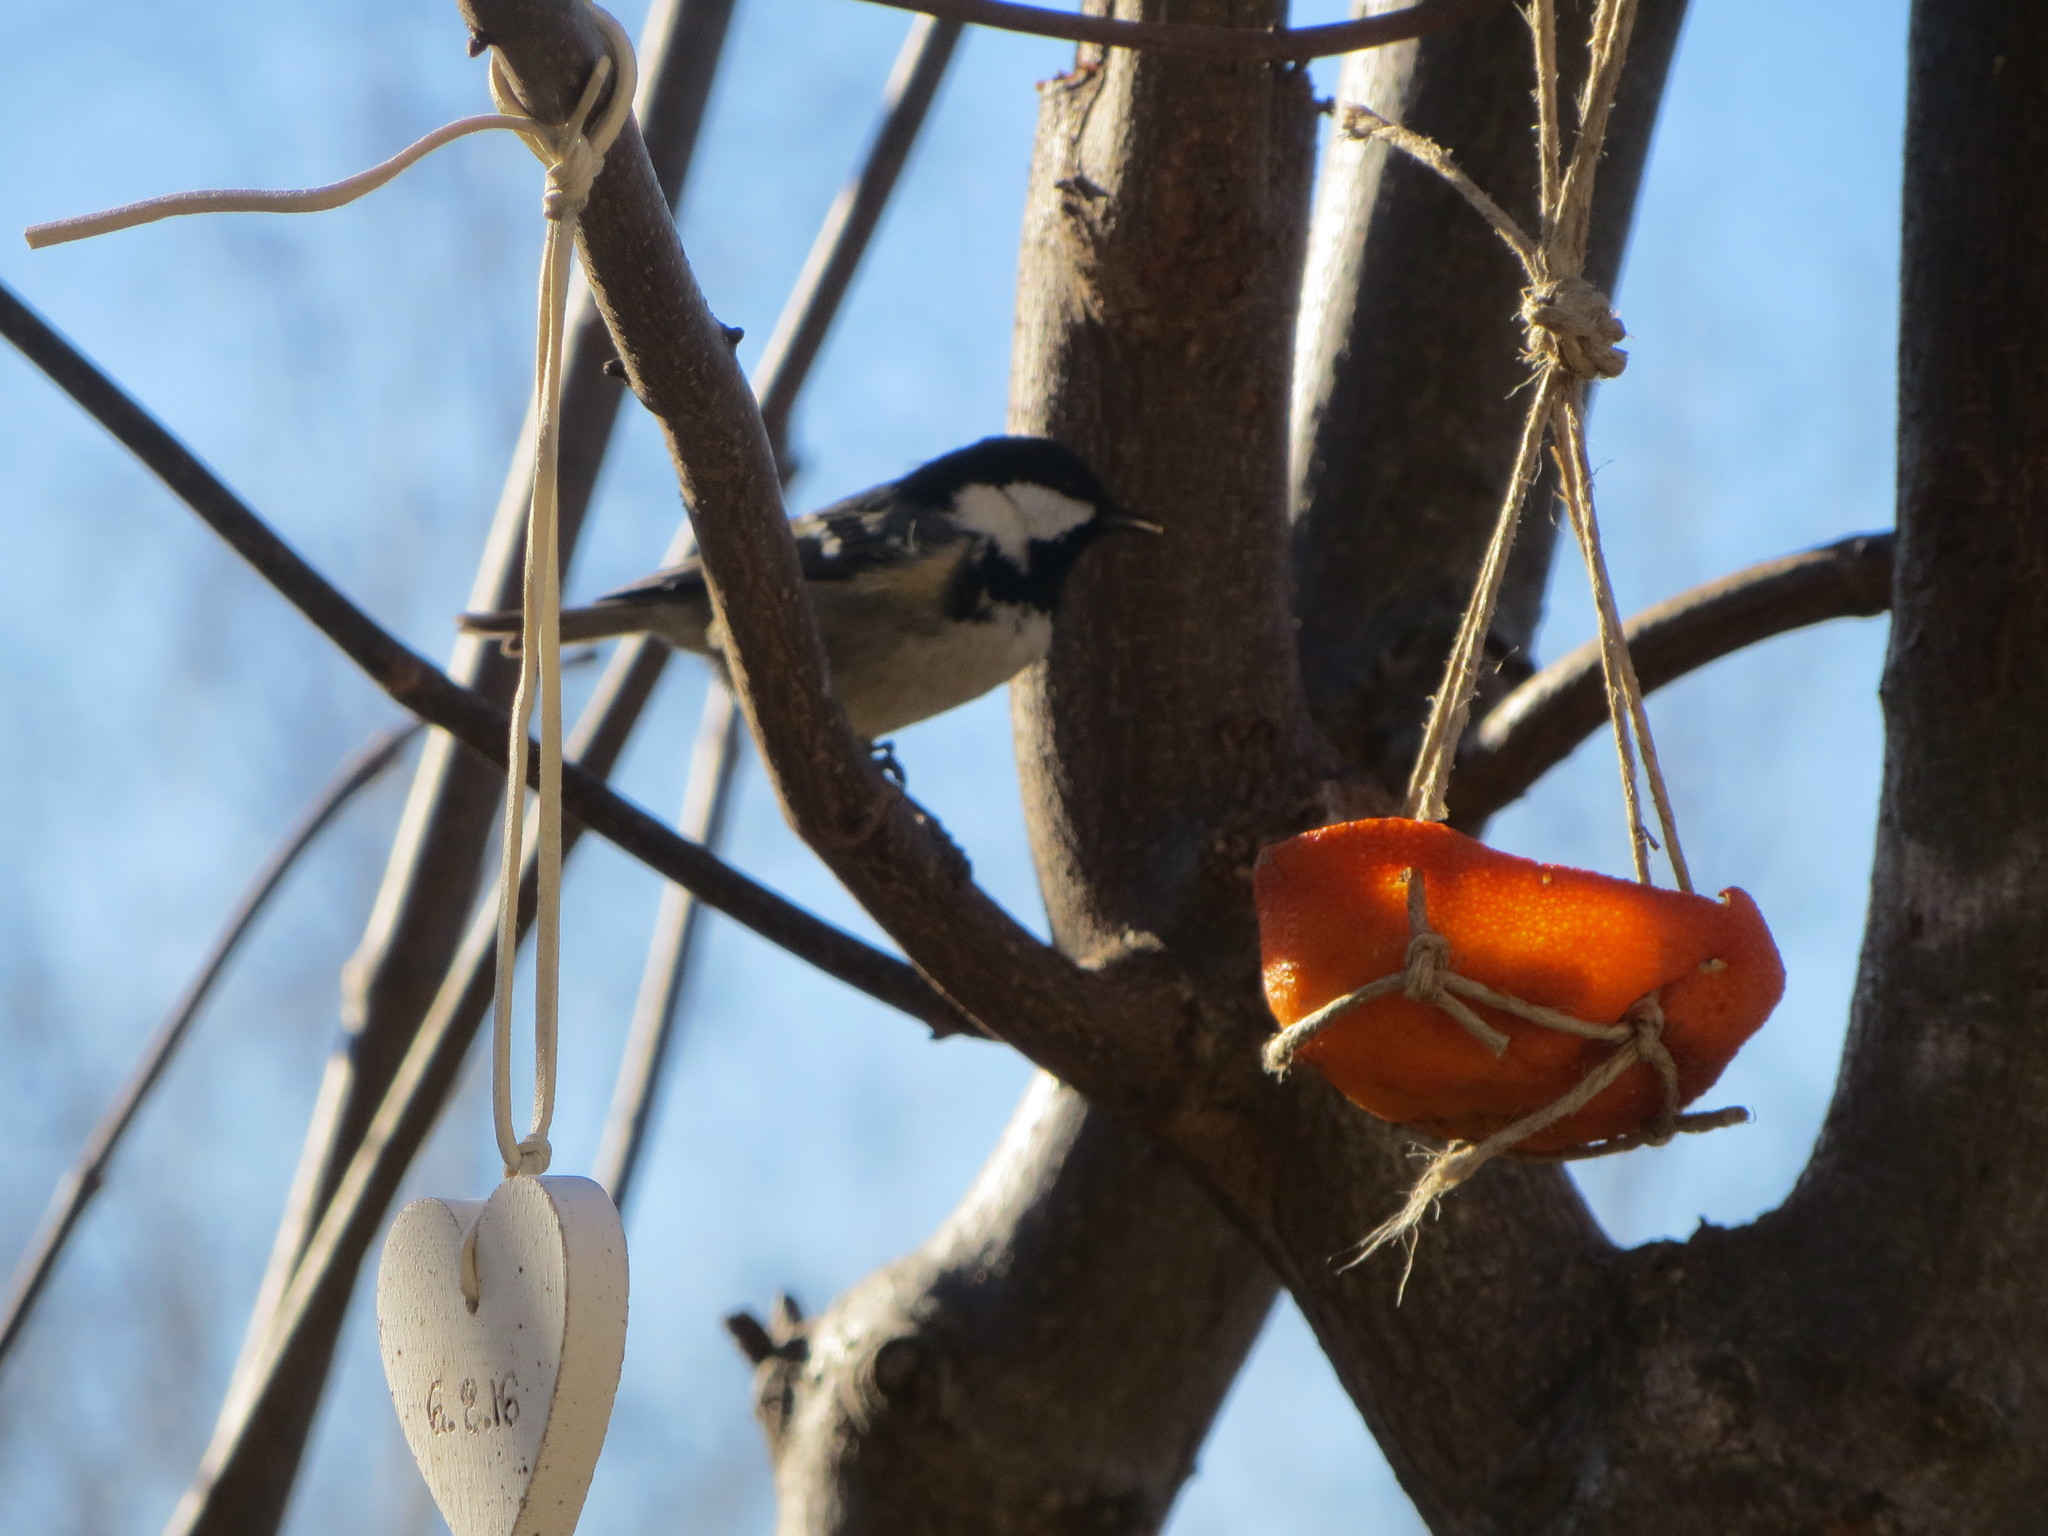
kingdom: Animalia
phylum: Chordata
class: Aves
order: Passeriformes
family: Paridae
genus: Periparus
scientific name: Periparus ater
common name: Coal tit
